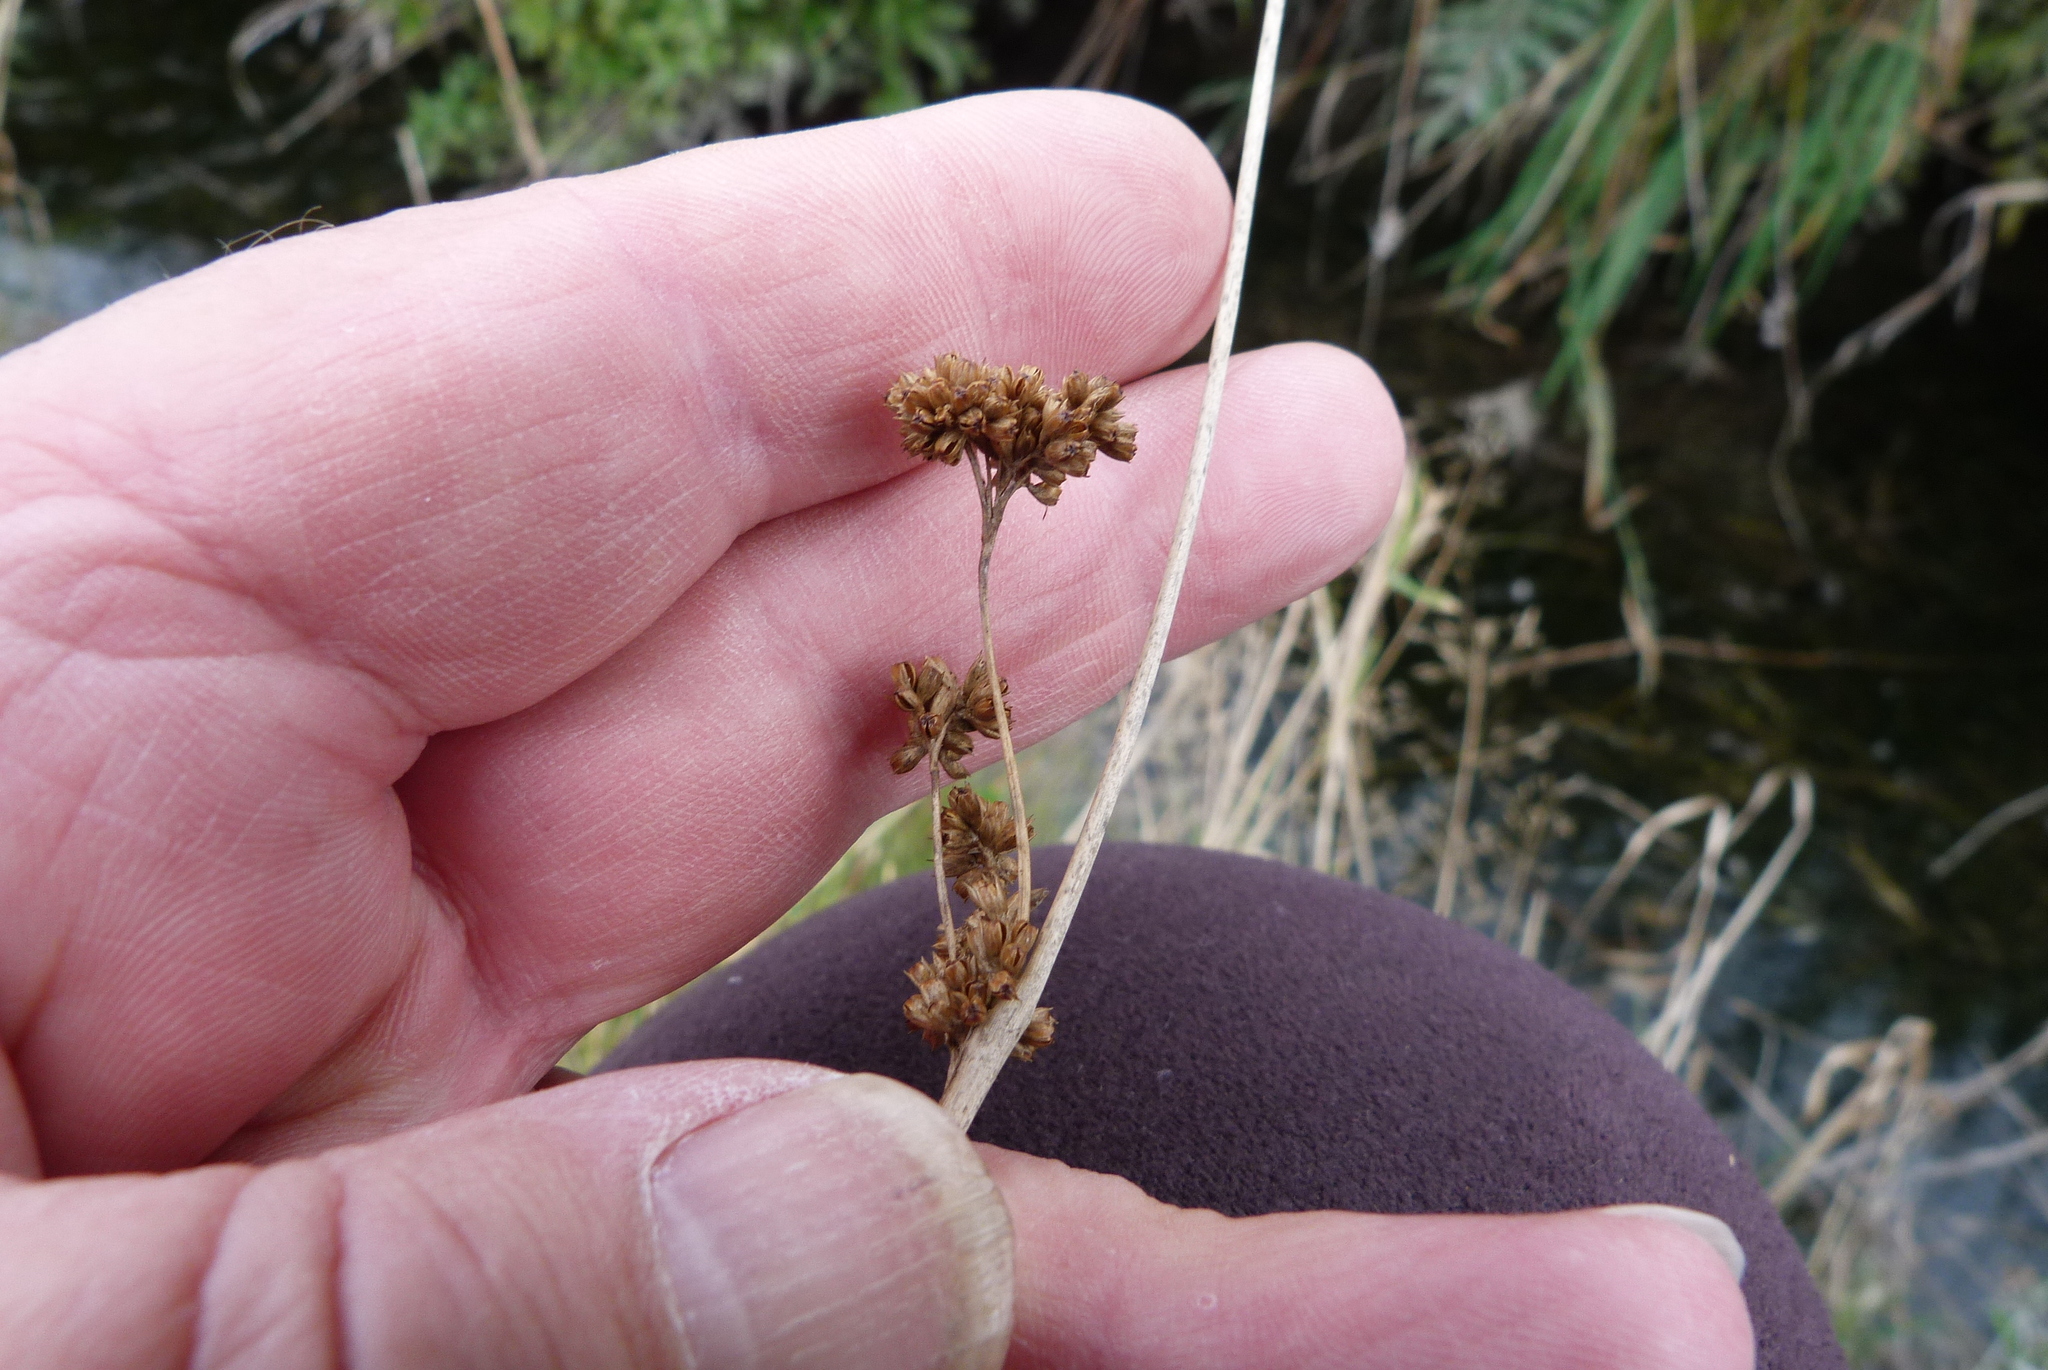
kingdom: Plantae
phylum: Tracheophyta
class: Liliopsida
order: Poales
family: Juncaceae
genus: Juncus
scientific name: Juncus edgariae
